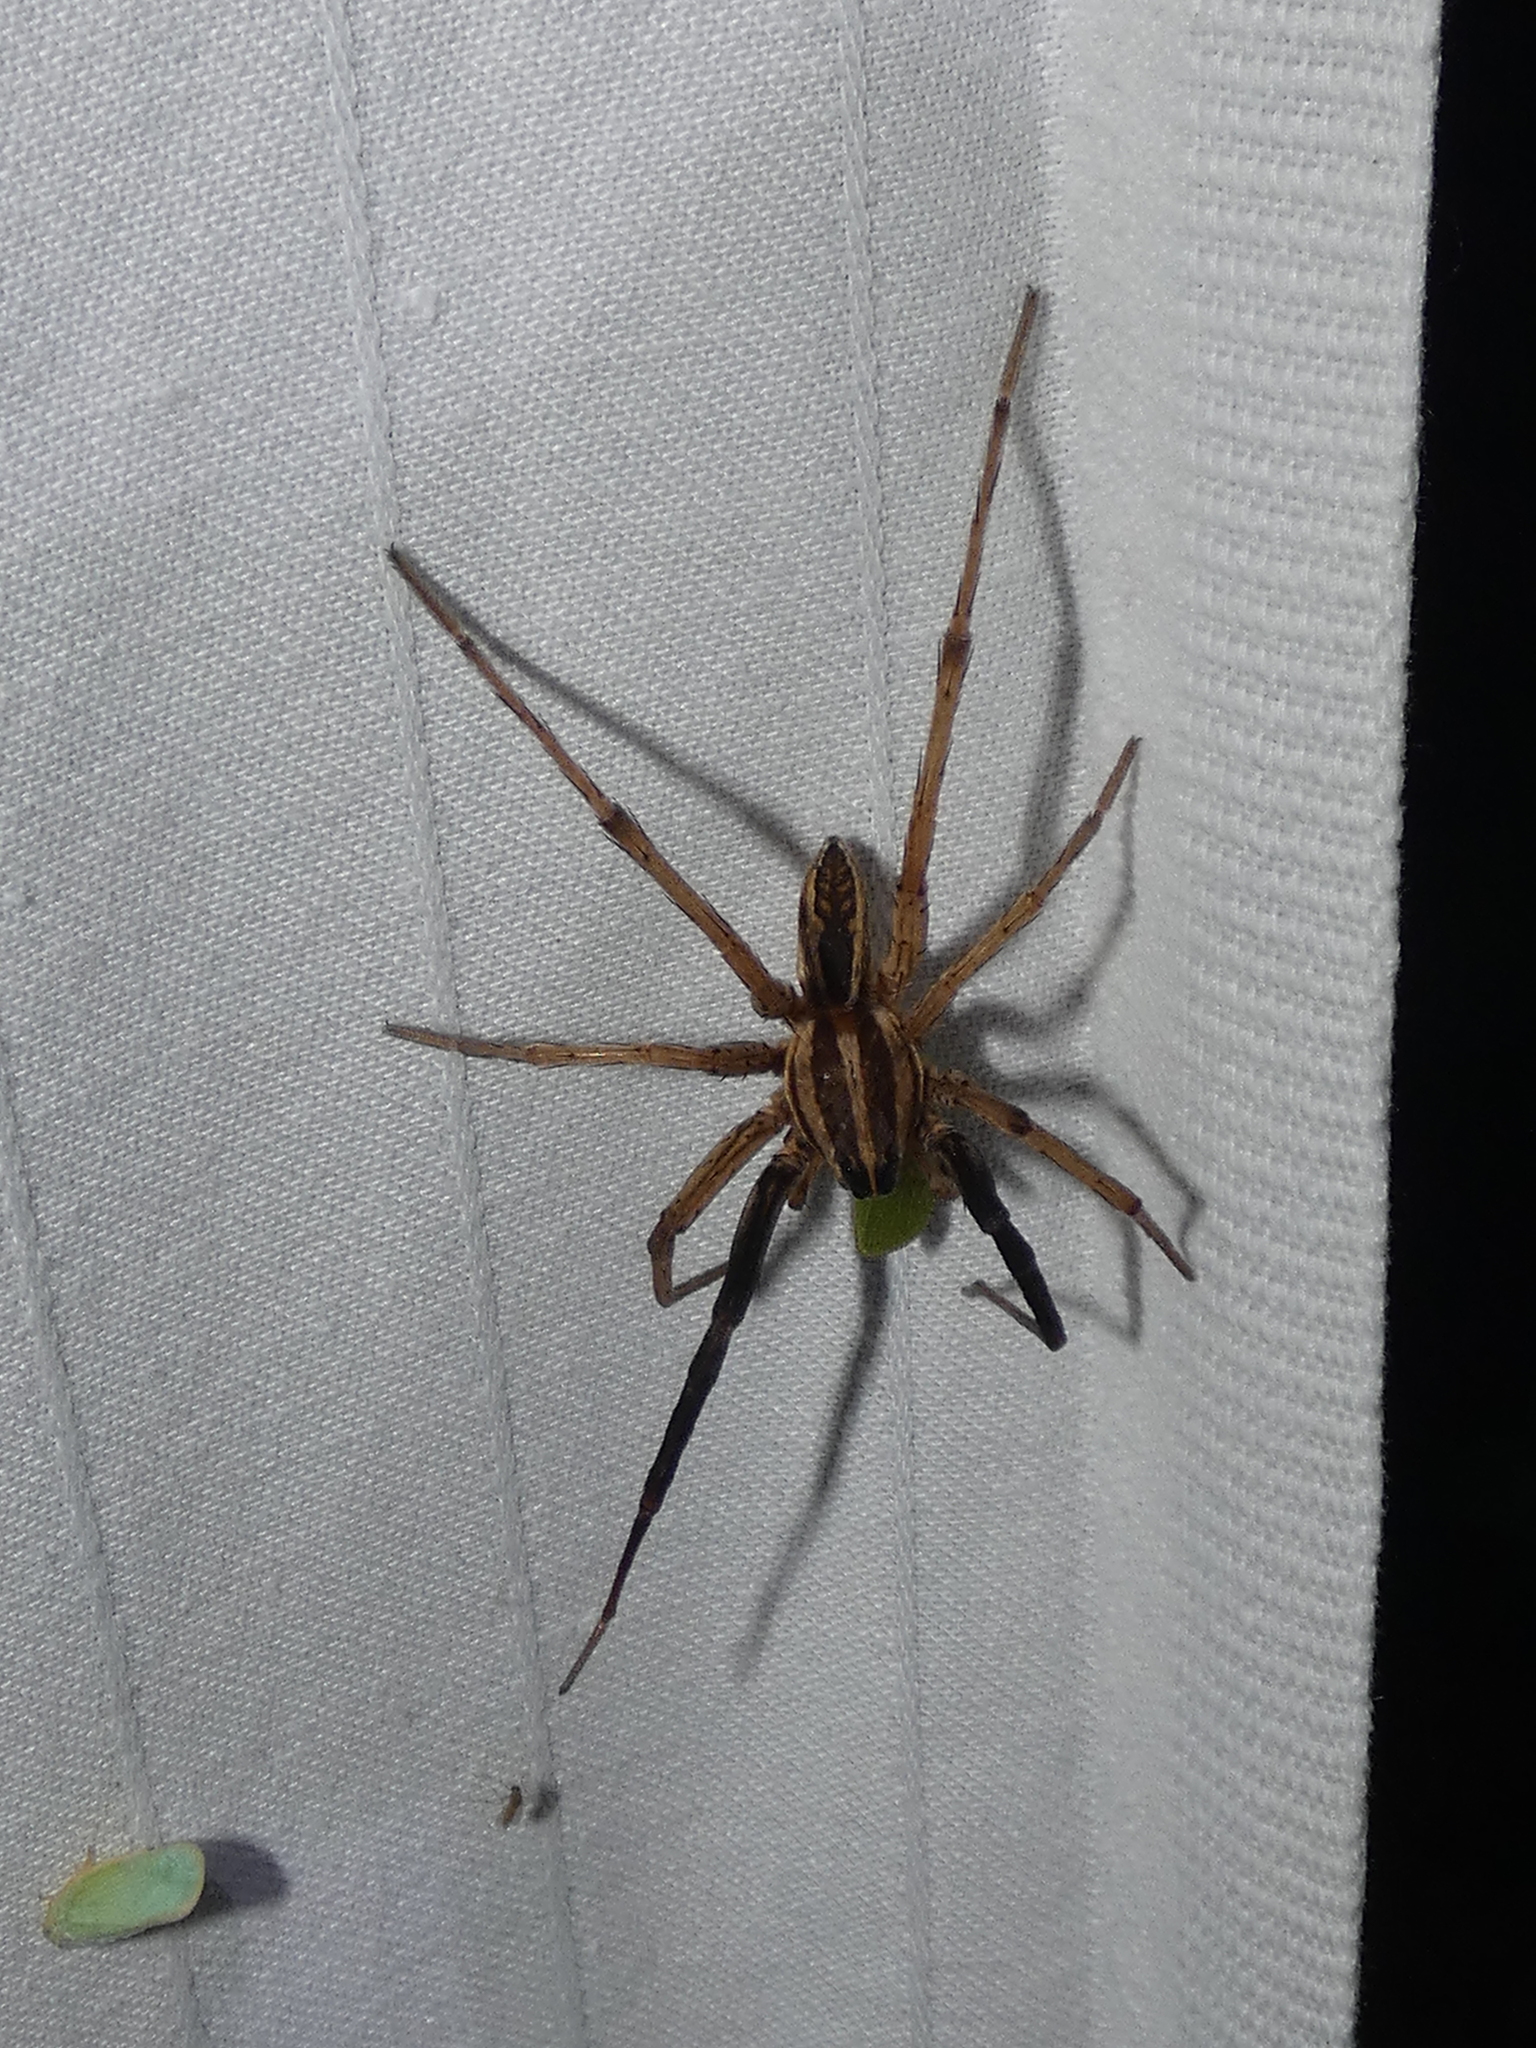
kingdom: Animalia
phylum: Arthropoda
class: Arachnida
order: Araneae
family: Lycosidae
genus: Rabidosa
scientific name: Rabidosa rabida
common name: Rabid wolf spider
